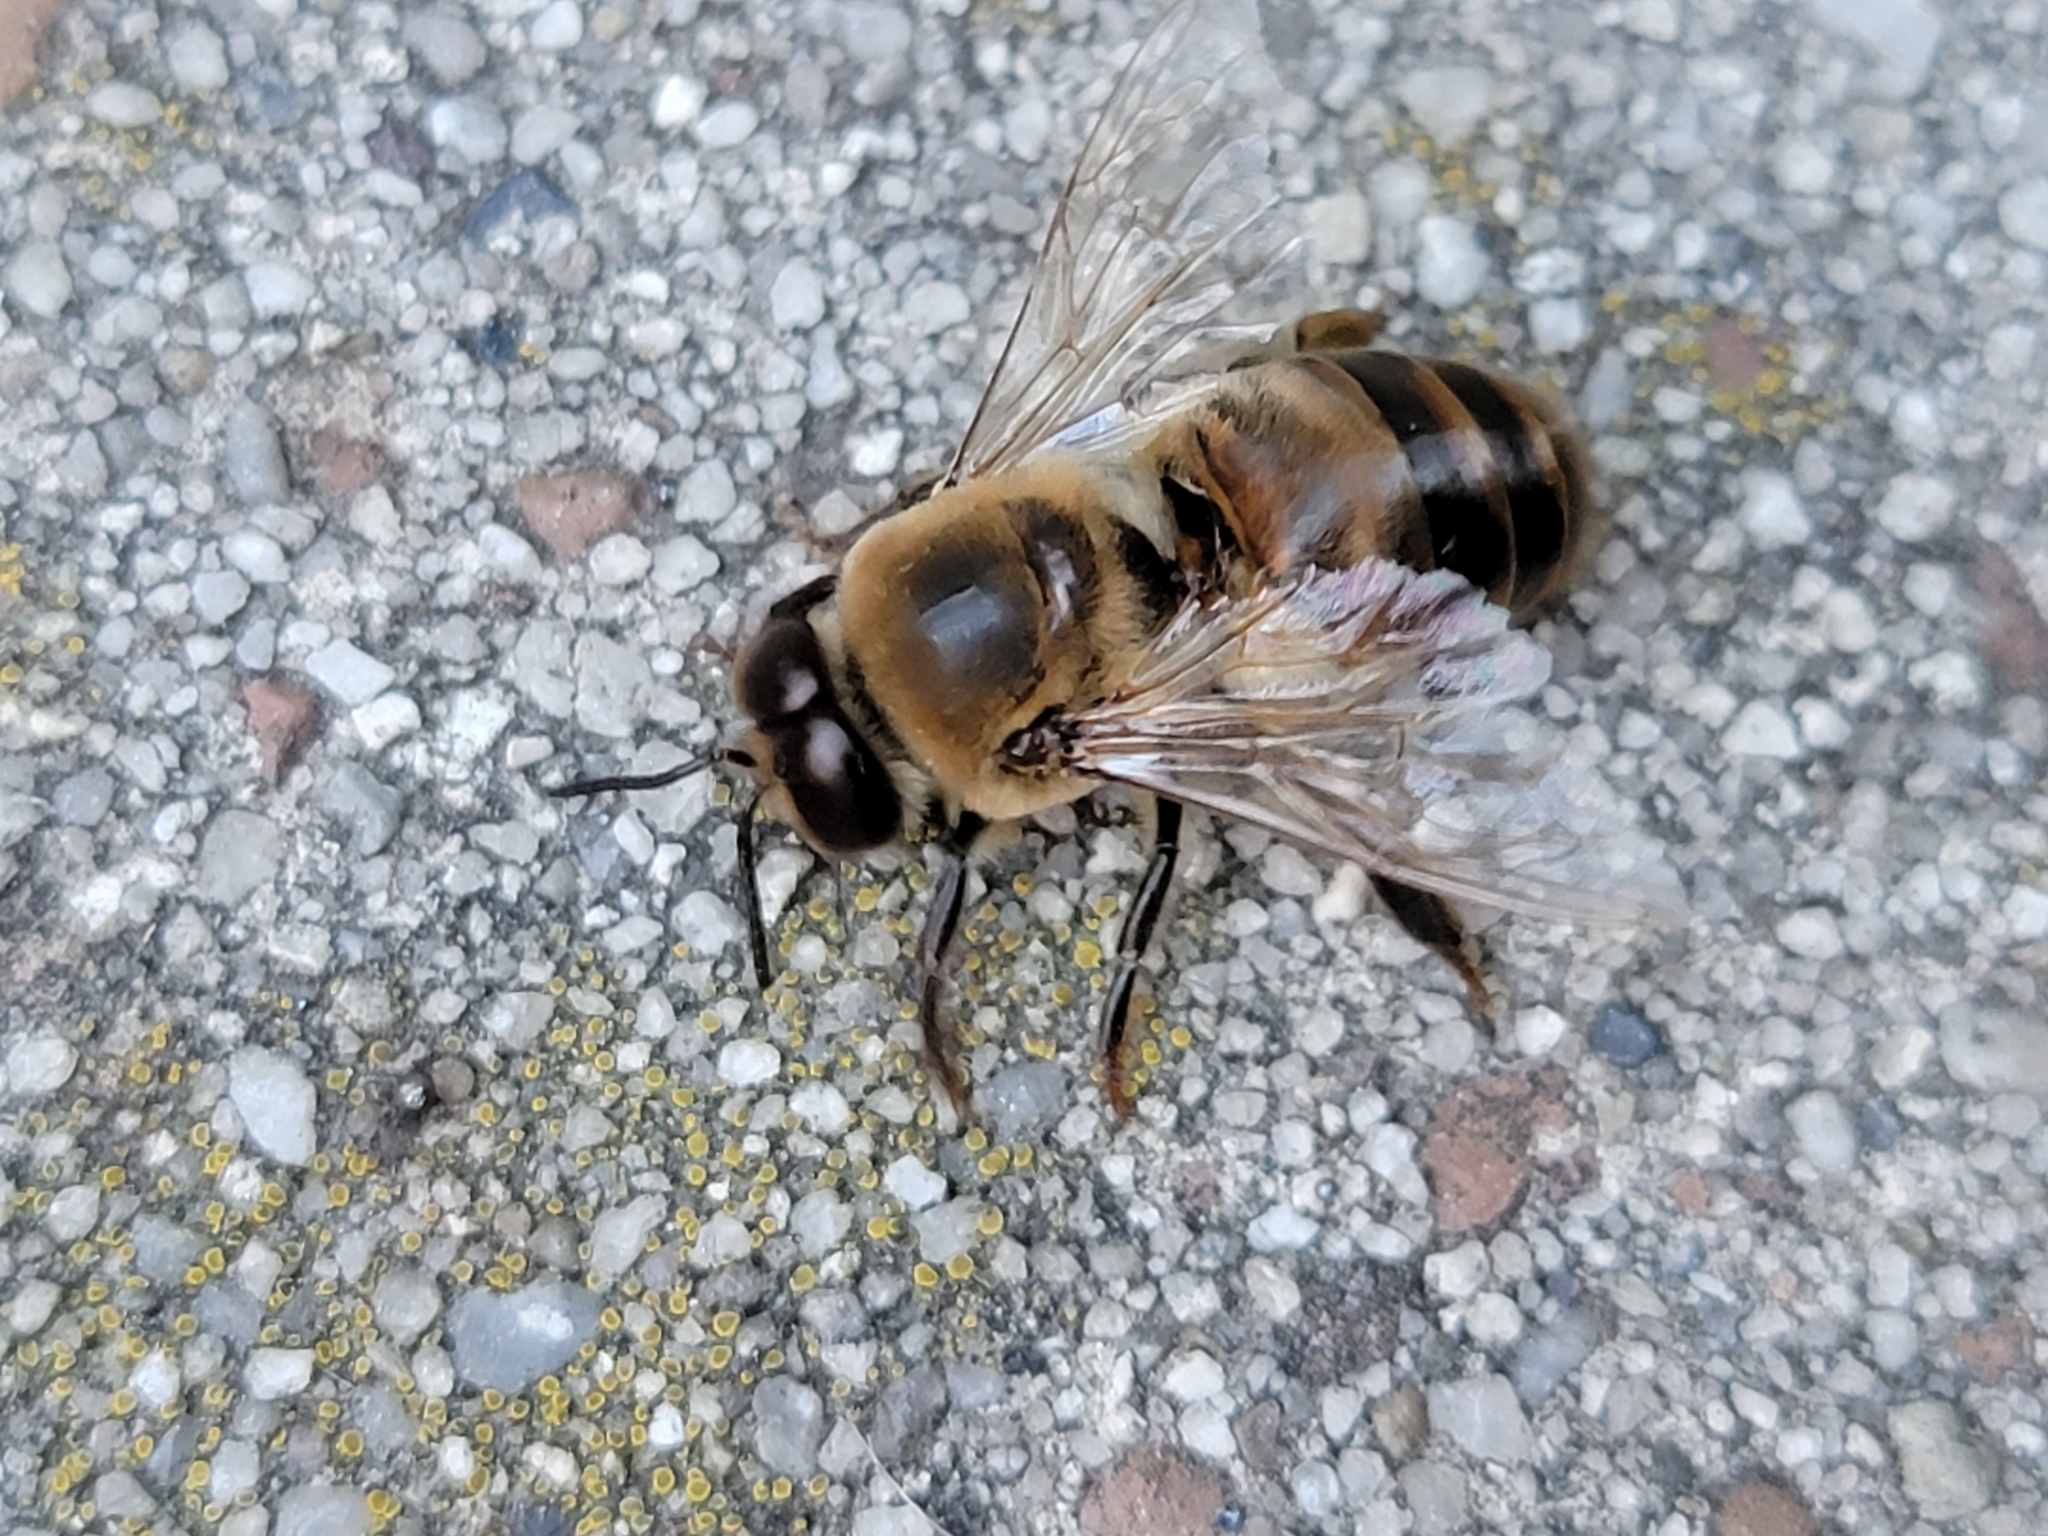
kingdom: Animalia
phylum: Arthropoda
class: Insecta
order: Hymenoptera
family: Apidae
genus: Apis
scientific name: Apis mellifera
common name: Honey bee
